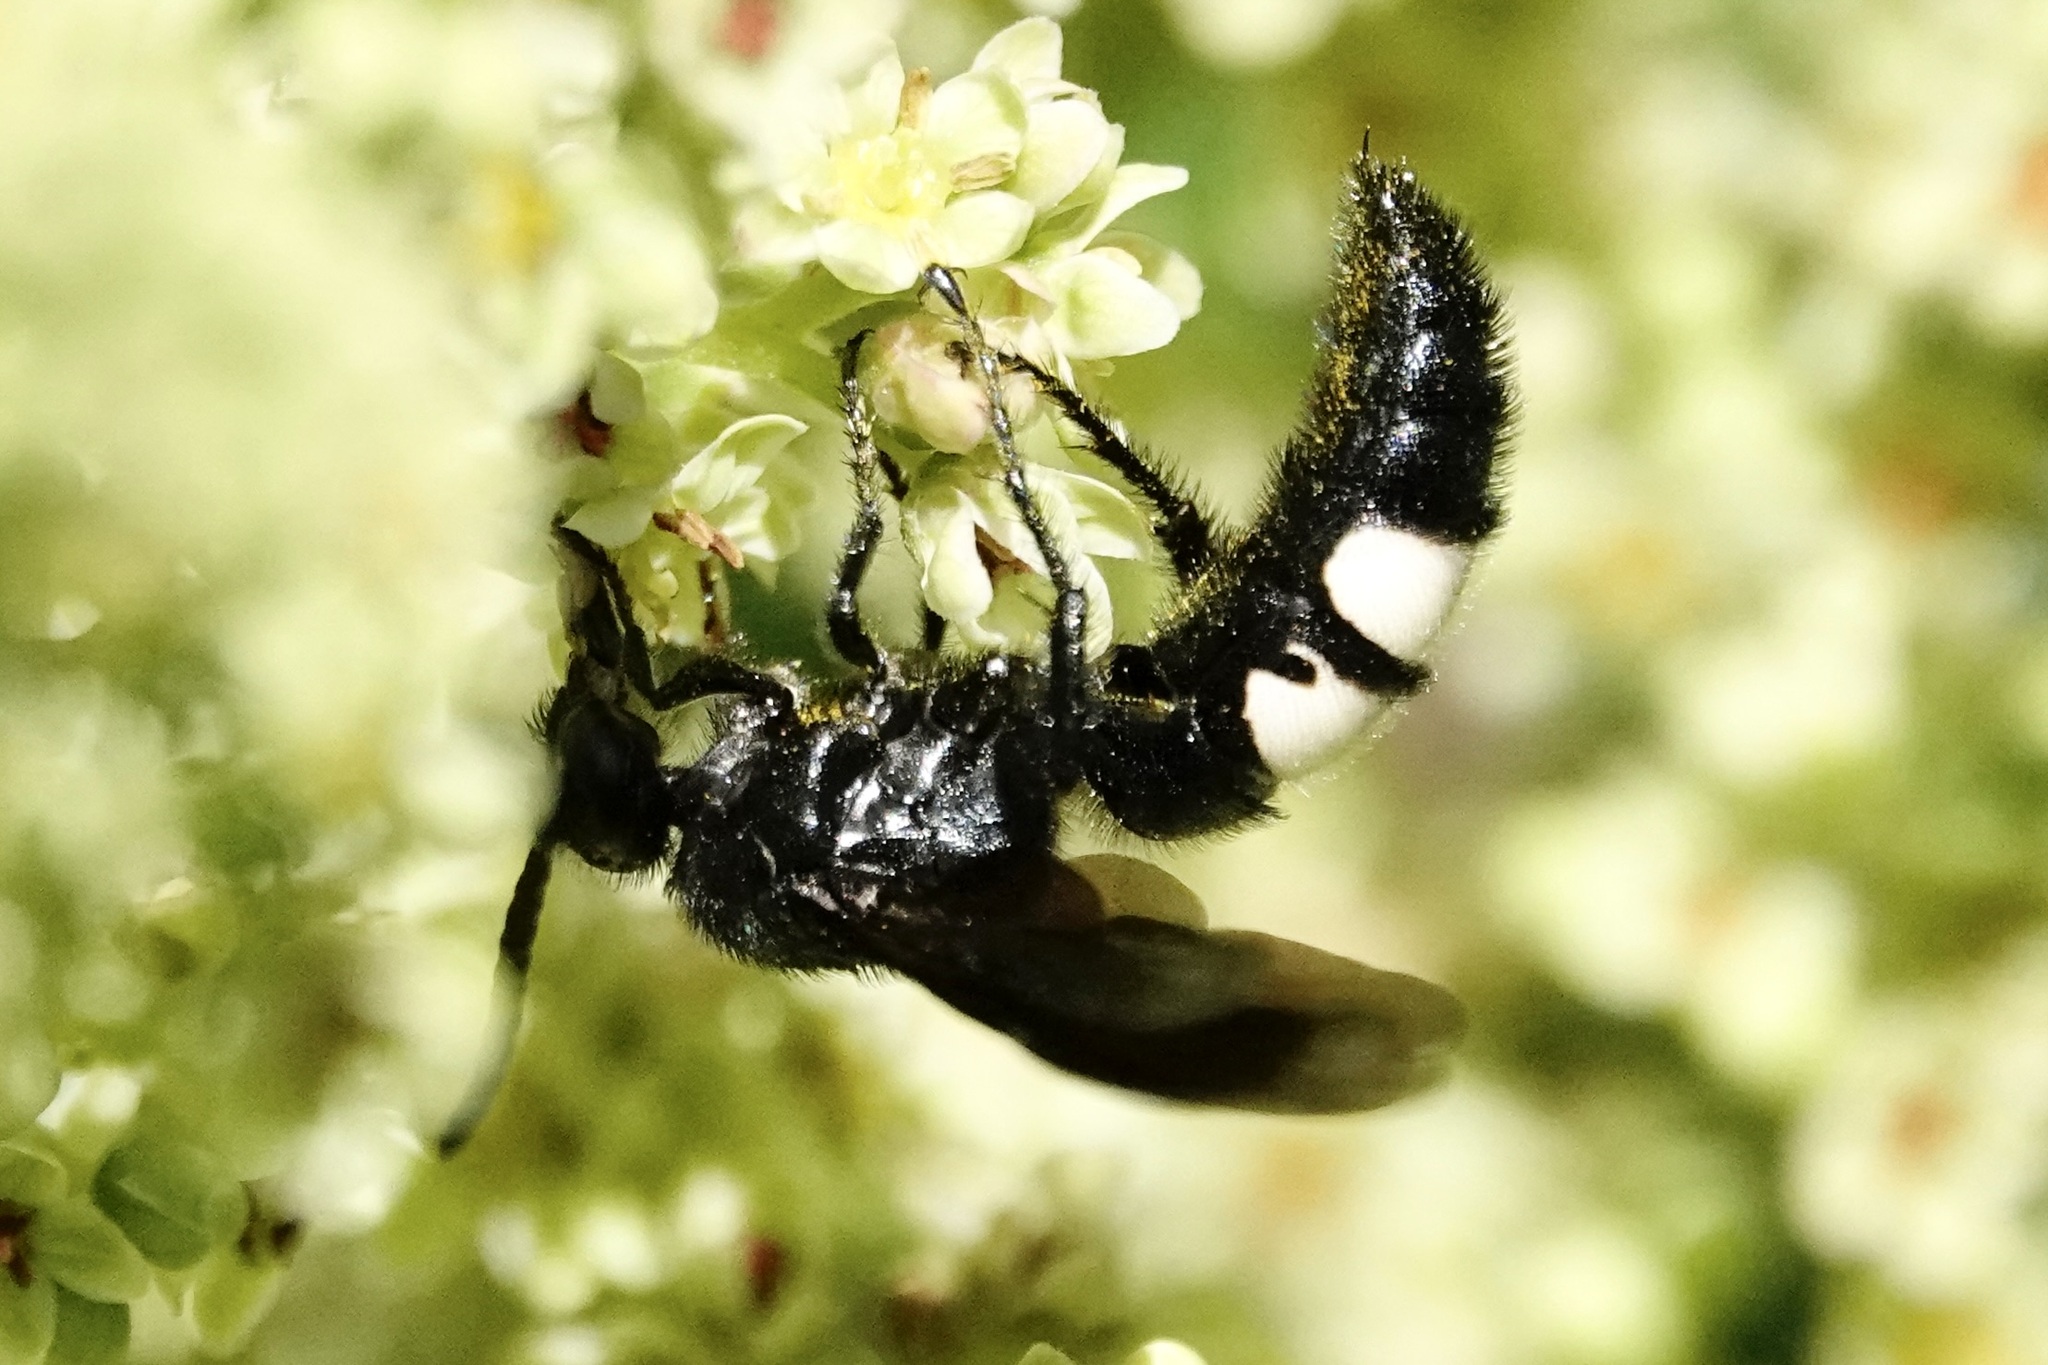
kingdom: Animalia
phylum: Arthropoda
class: Insecta
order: Hymenoptera
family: Scoliidae
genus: Scolia
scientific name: Scolia bicincta
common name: Double-banded scoliid wasp
